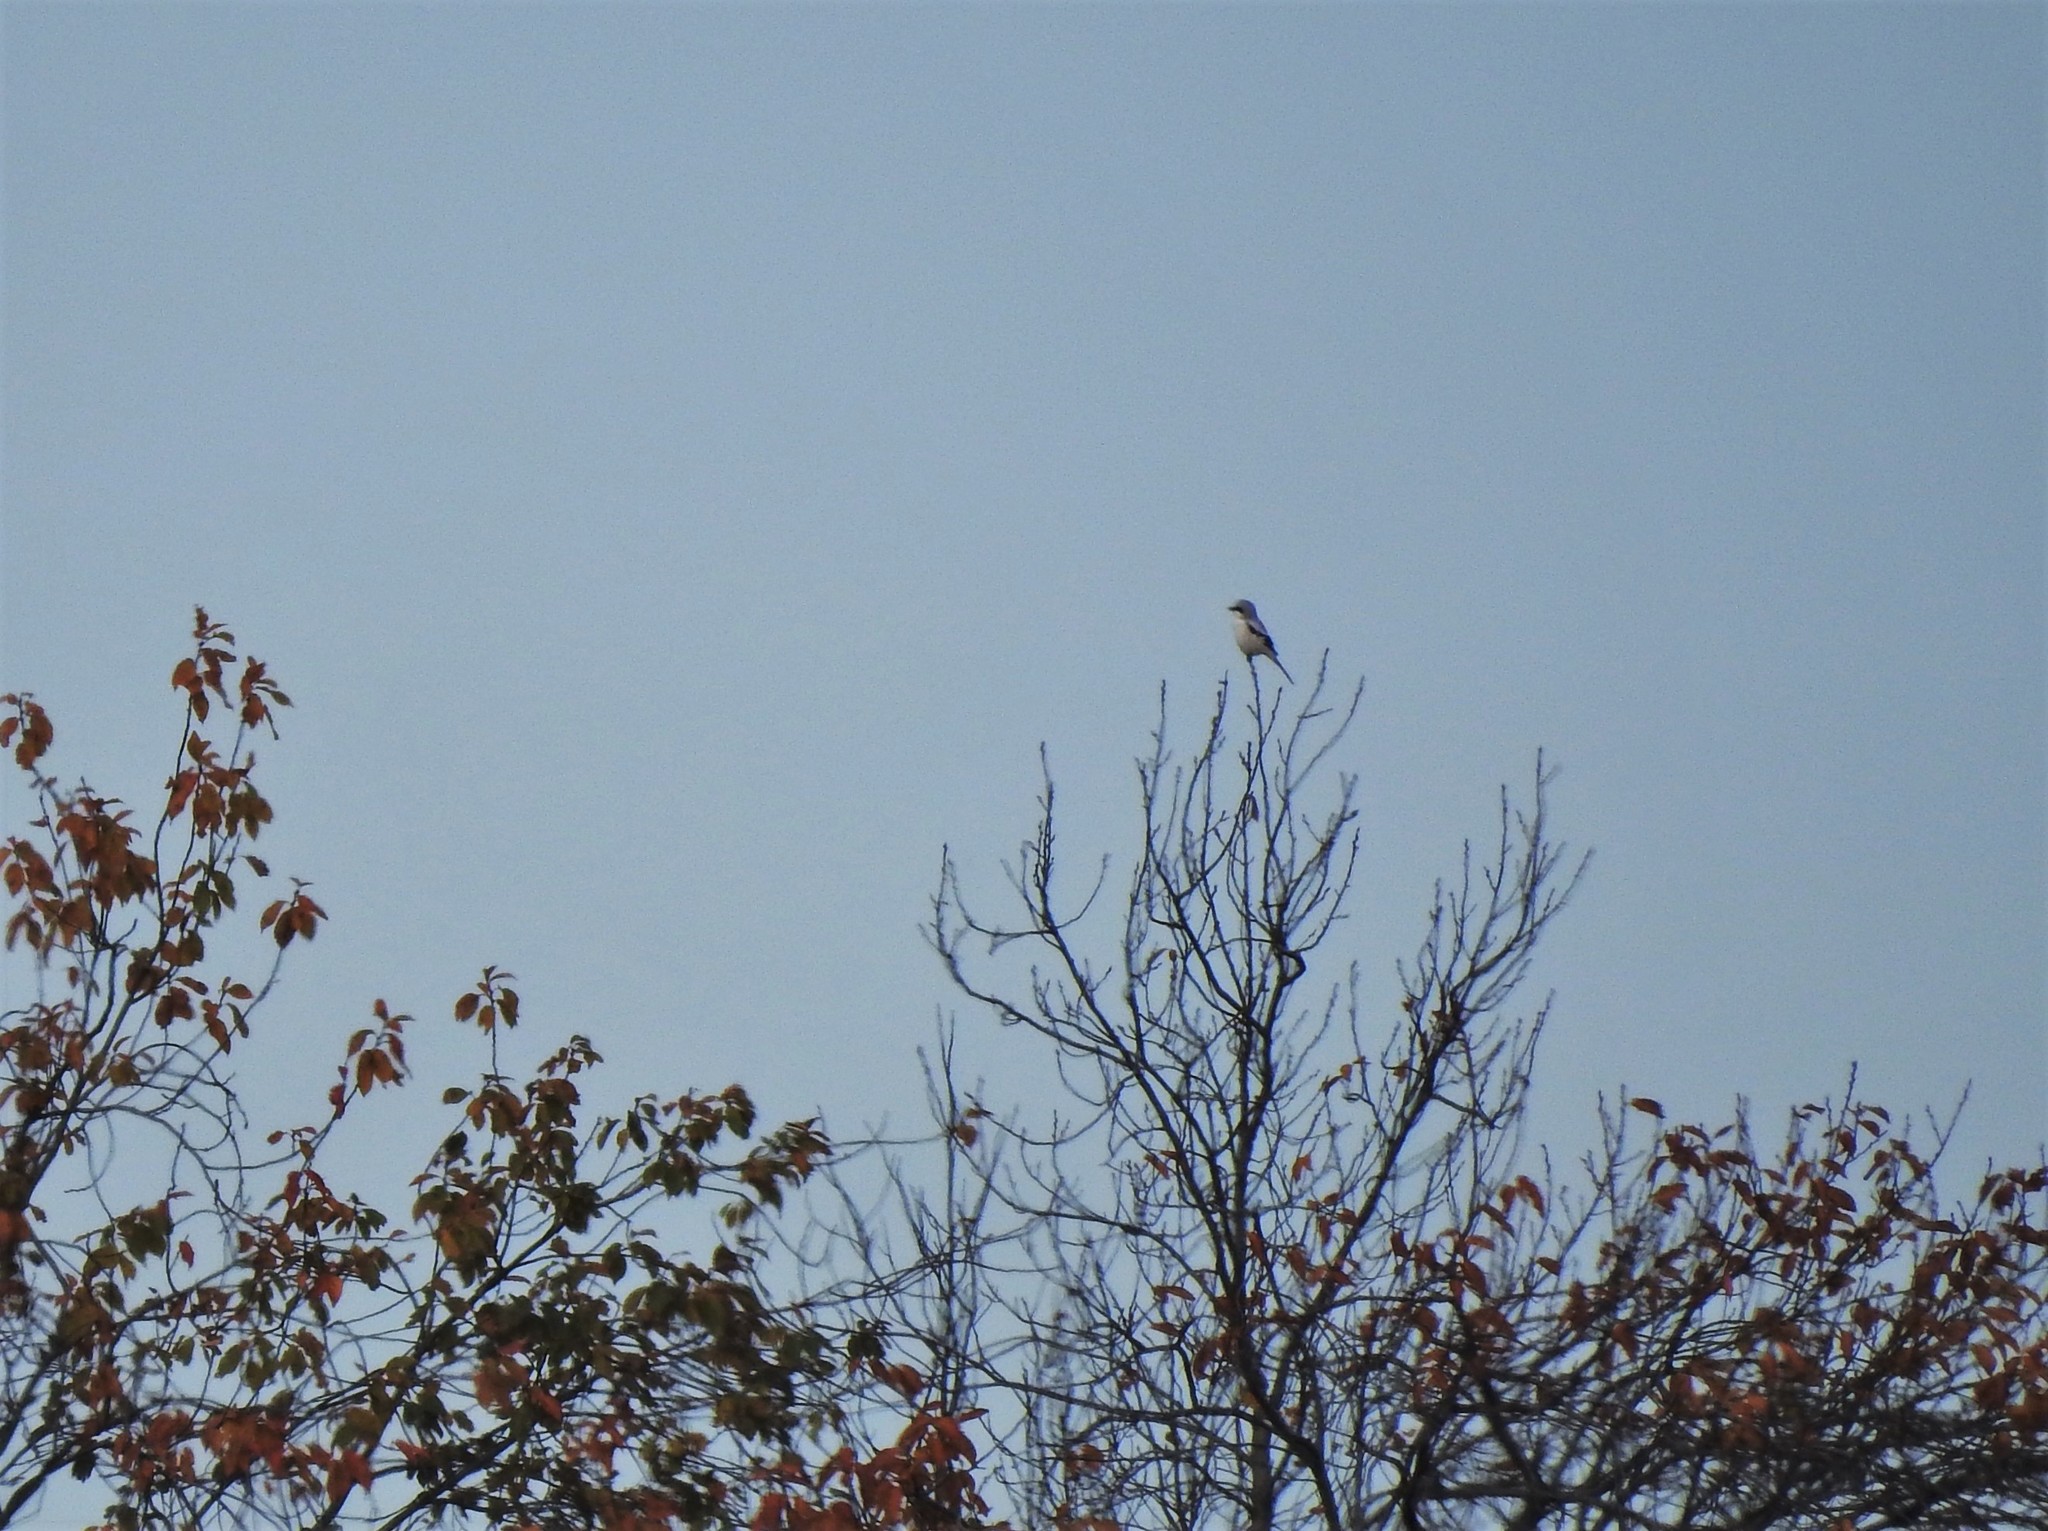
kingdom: Animalia
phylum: Chordata
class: Aves
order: Passeriformes
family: Laniidae
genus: Lanius
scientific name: Lanius excubitor
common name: Great grey shrike
